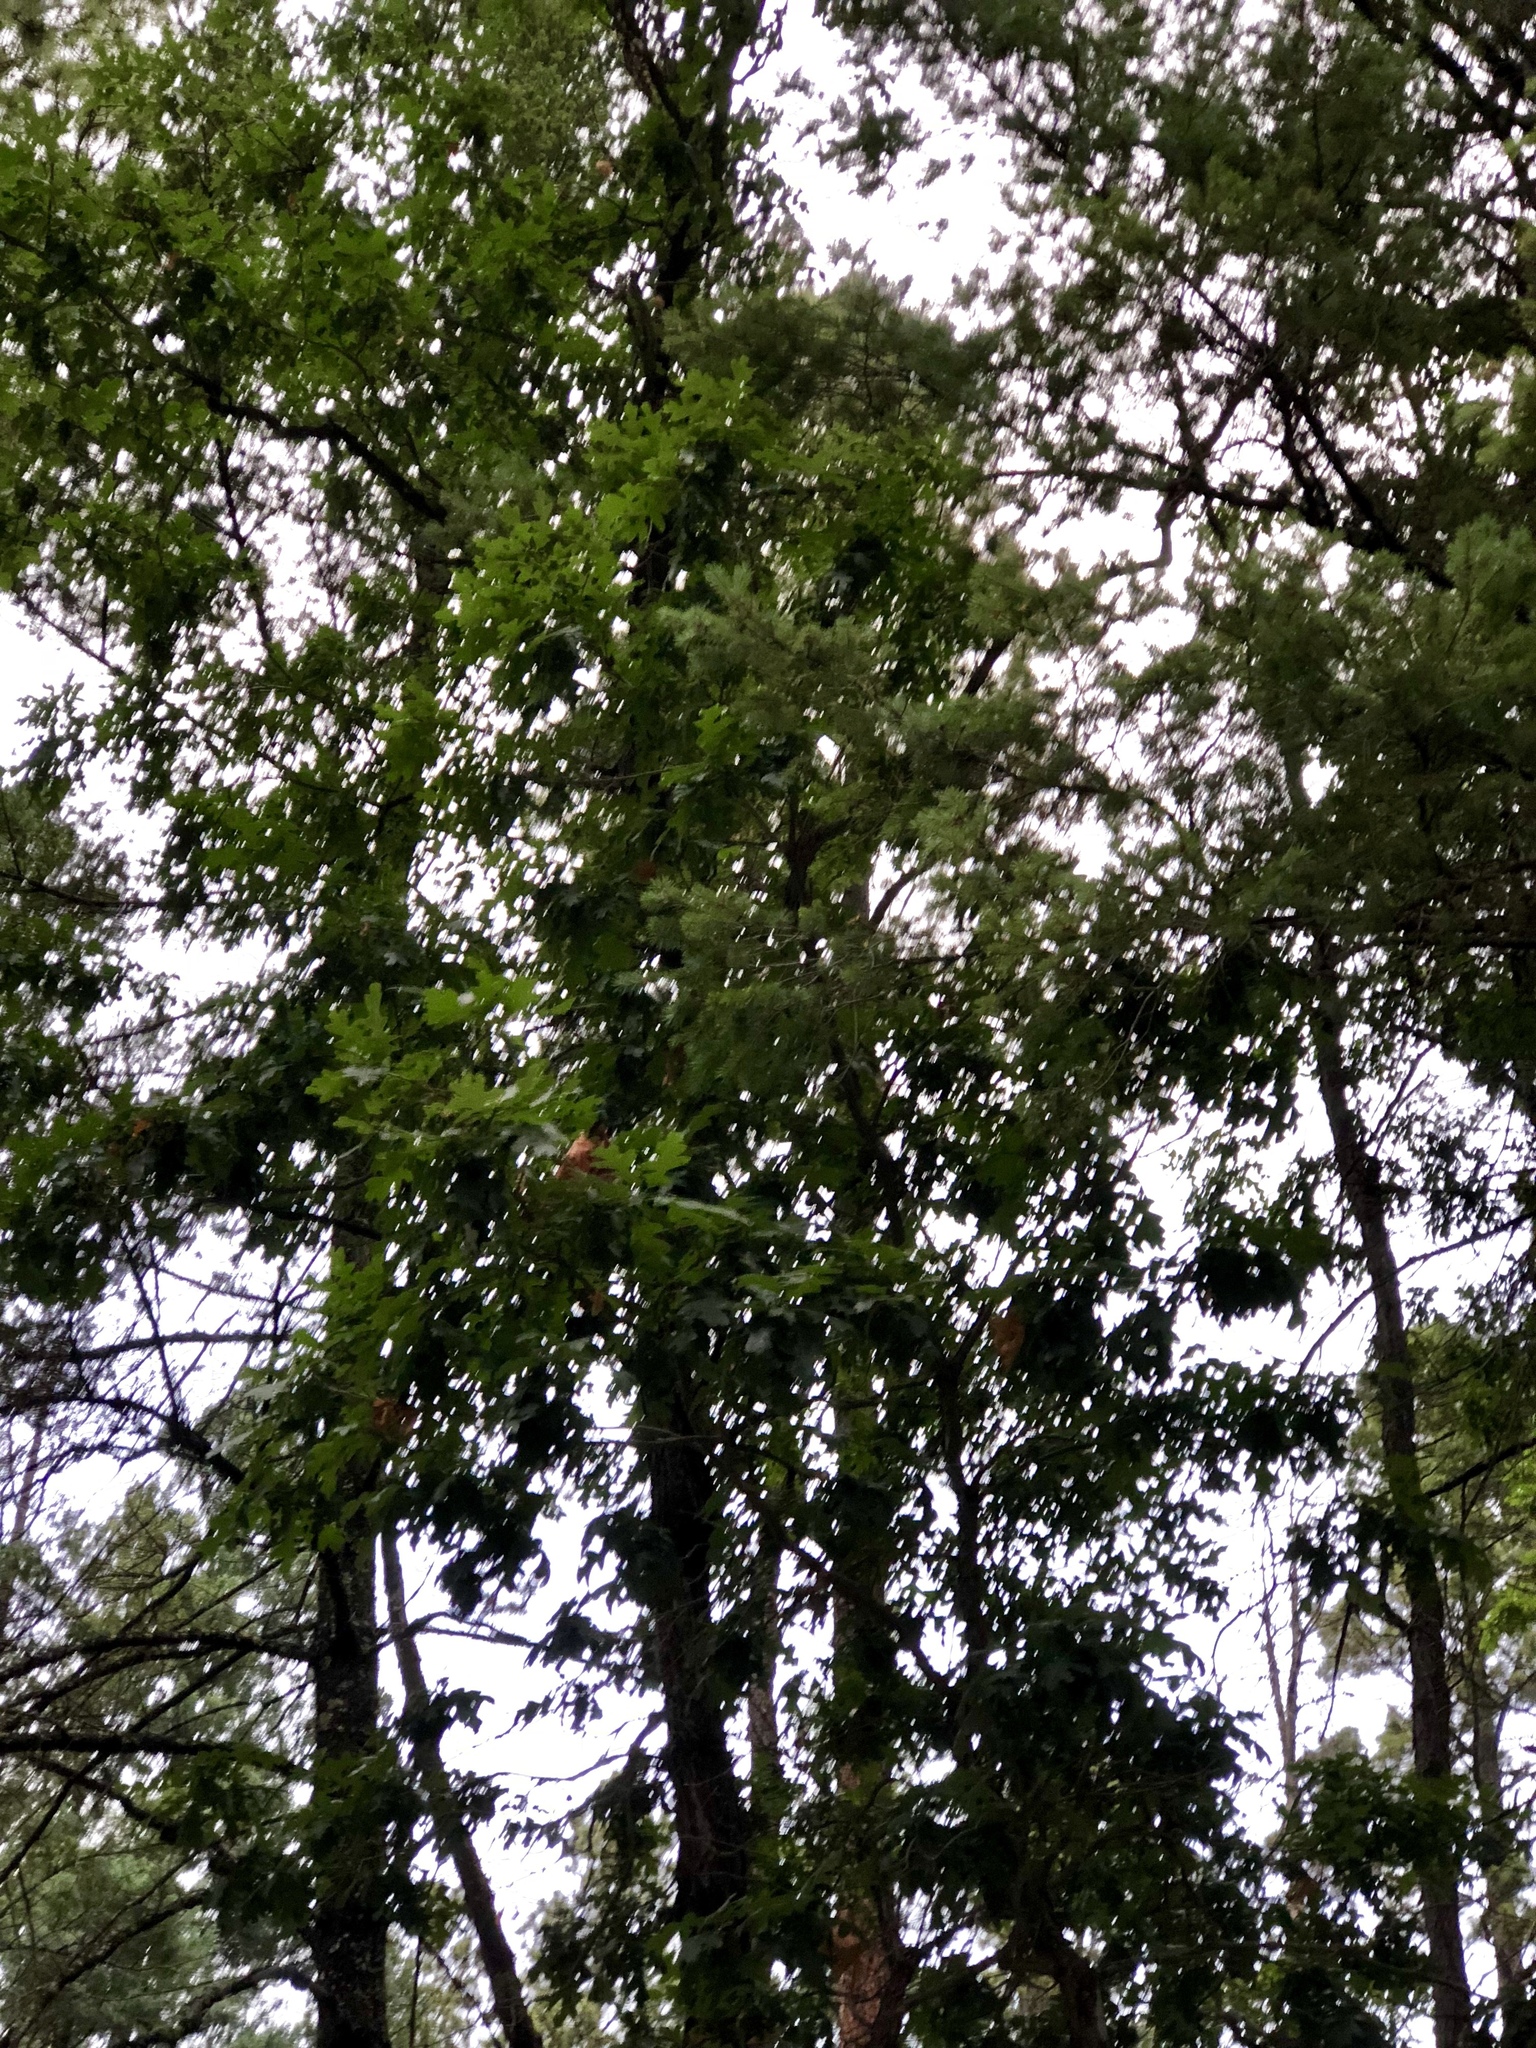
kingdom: Plantae
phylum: Tracheophyta
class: Magnoliopsida
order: Fagales
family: Fagaceae
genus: Quercus
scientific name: Quercus gambelii
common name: Gambel oak
